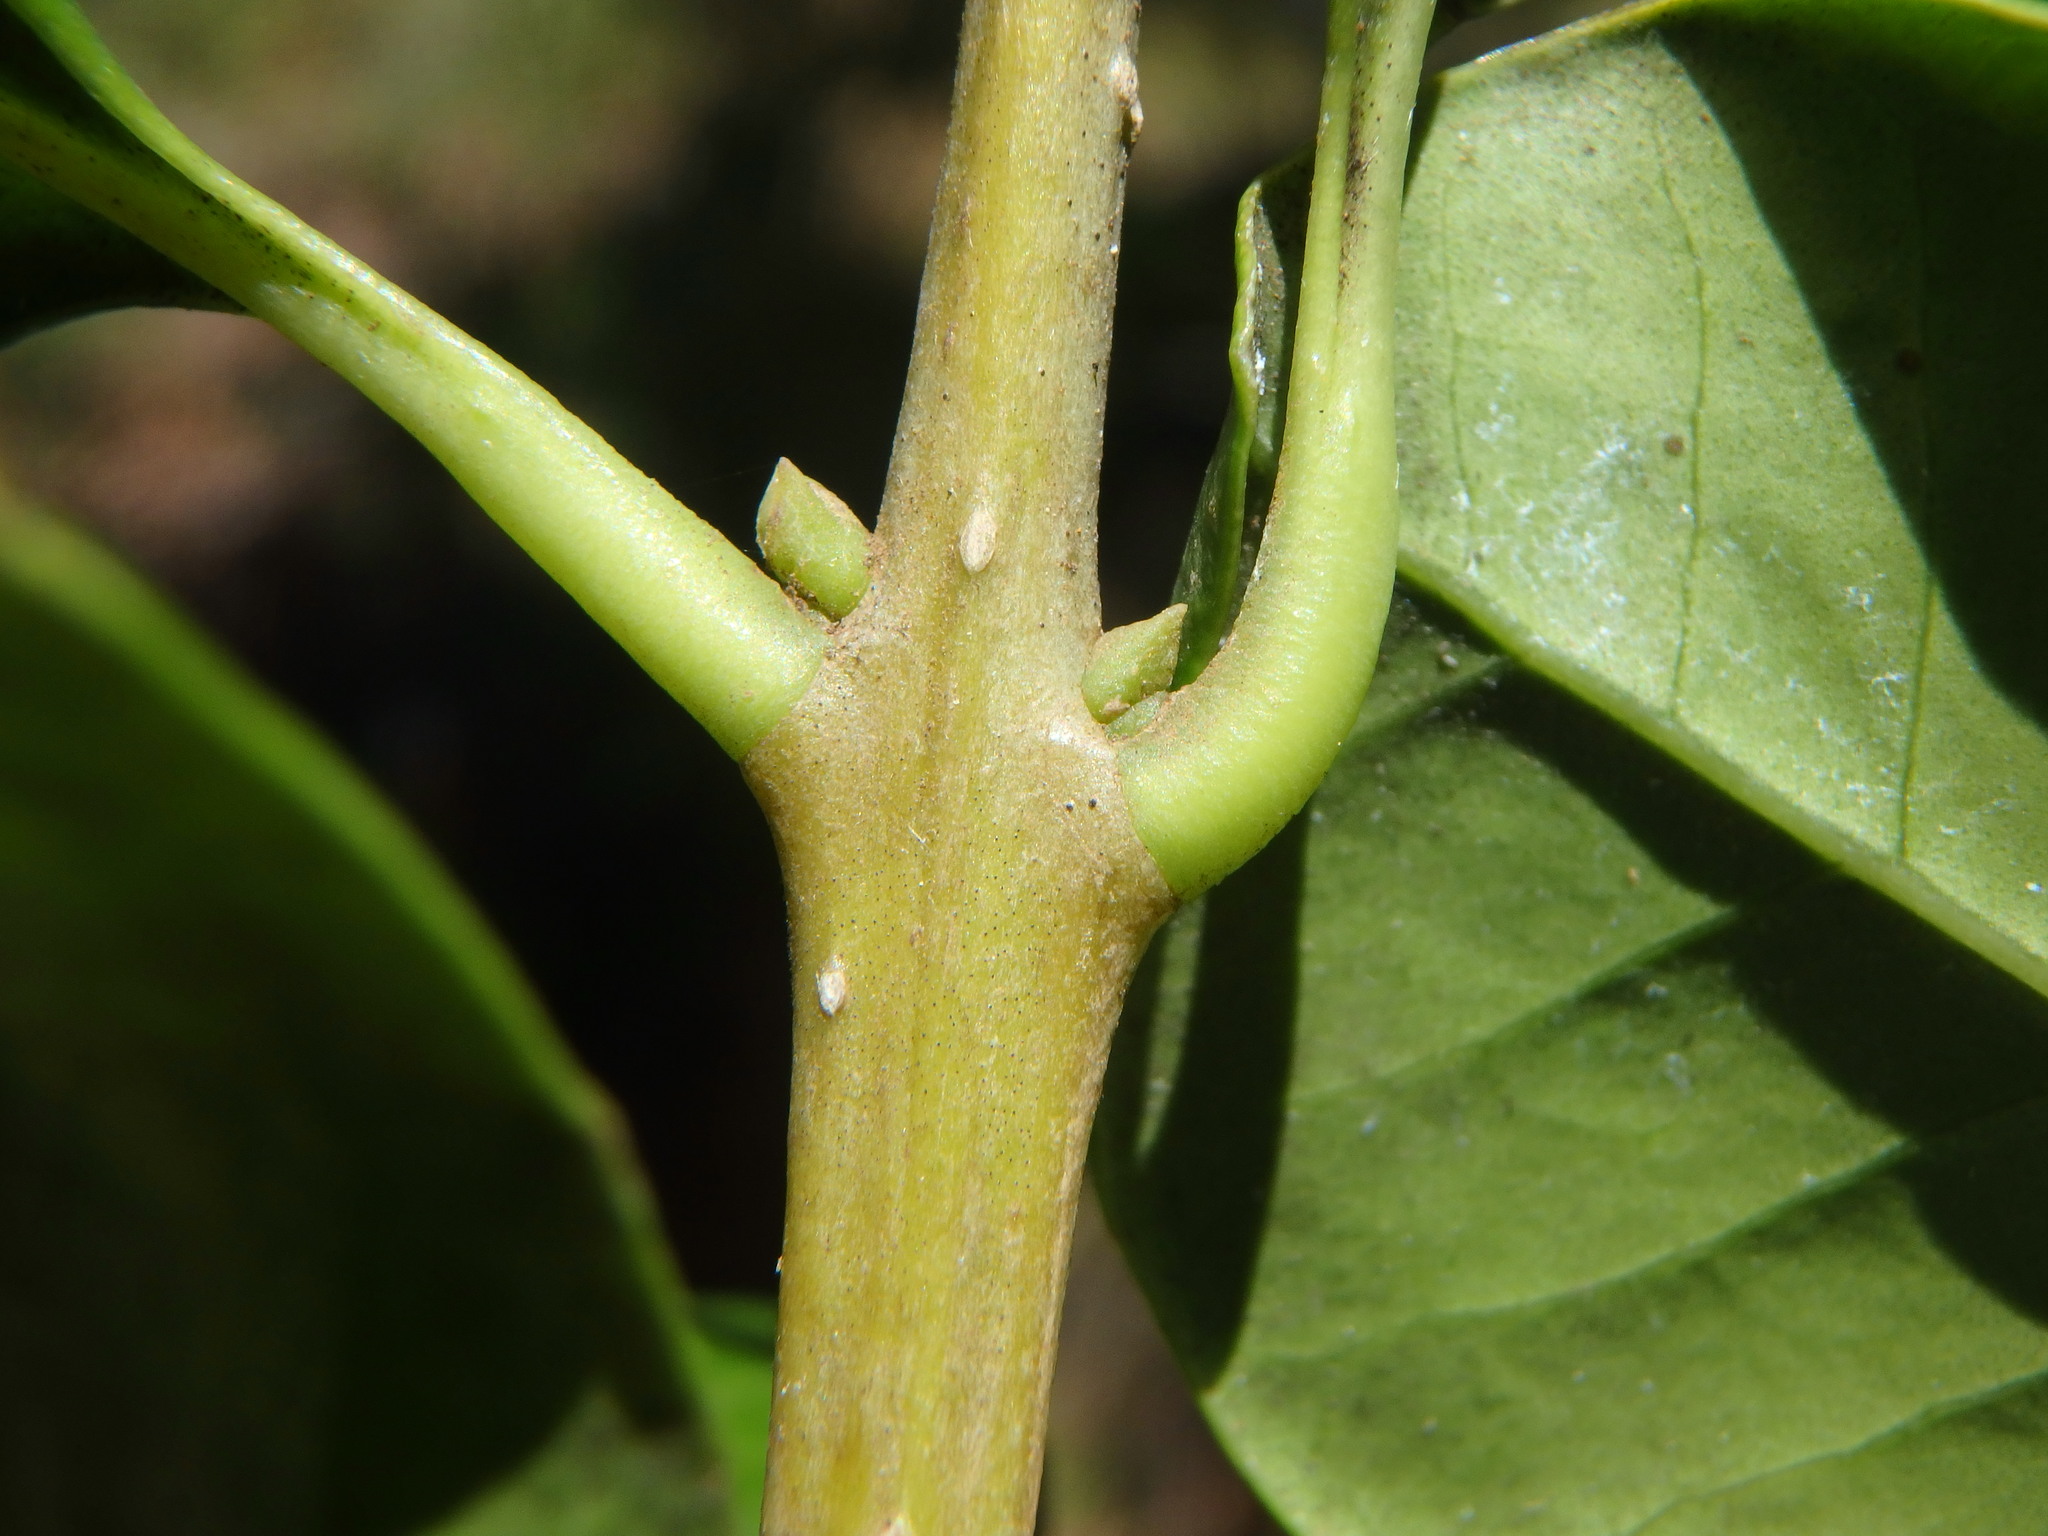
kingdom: Plantae
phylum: Tracheophyta
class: Magnoliopsida
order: Lamiales
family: Oleaceae
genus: Picconia
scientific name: Picconia excelsa
